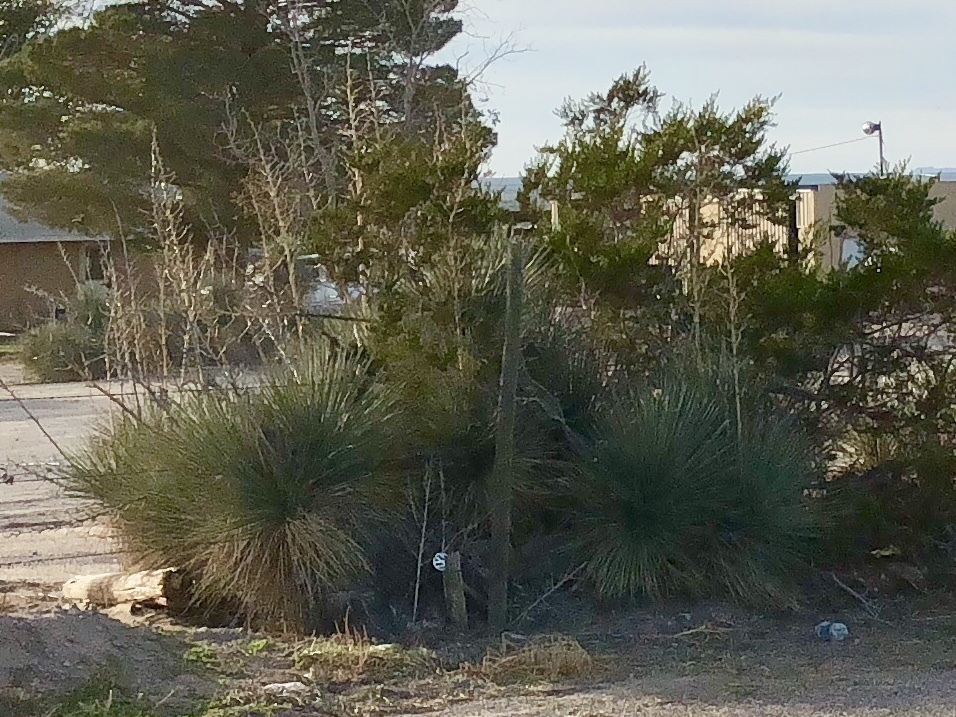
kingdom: Plantae
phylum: Tracheophyta
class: Liliopsida
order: Asparagales
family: Asparagaceae
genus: Yucca
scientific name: Yucca elata
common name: Palmella
